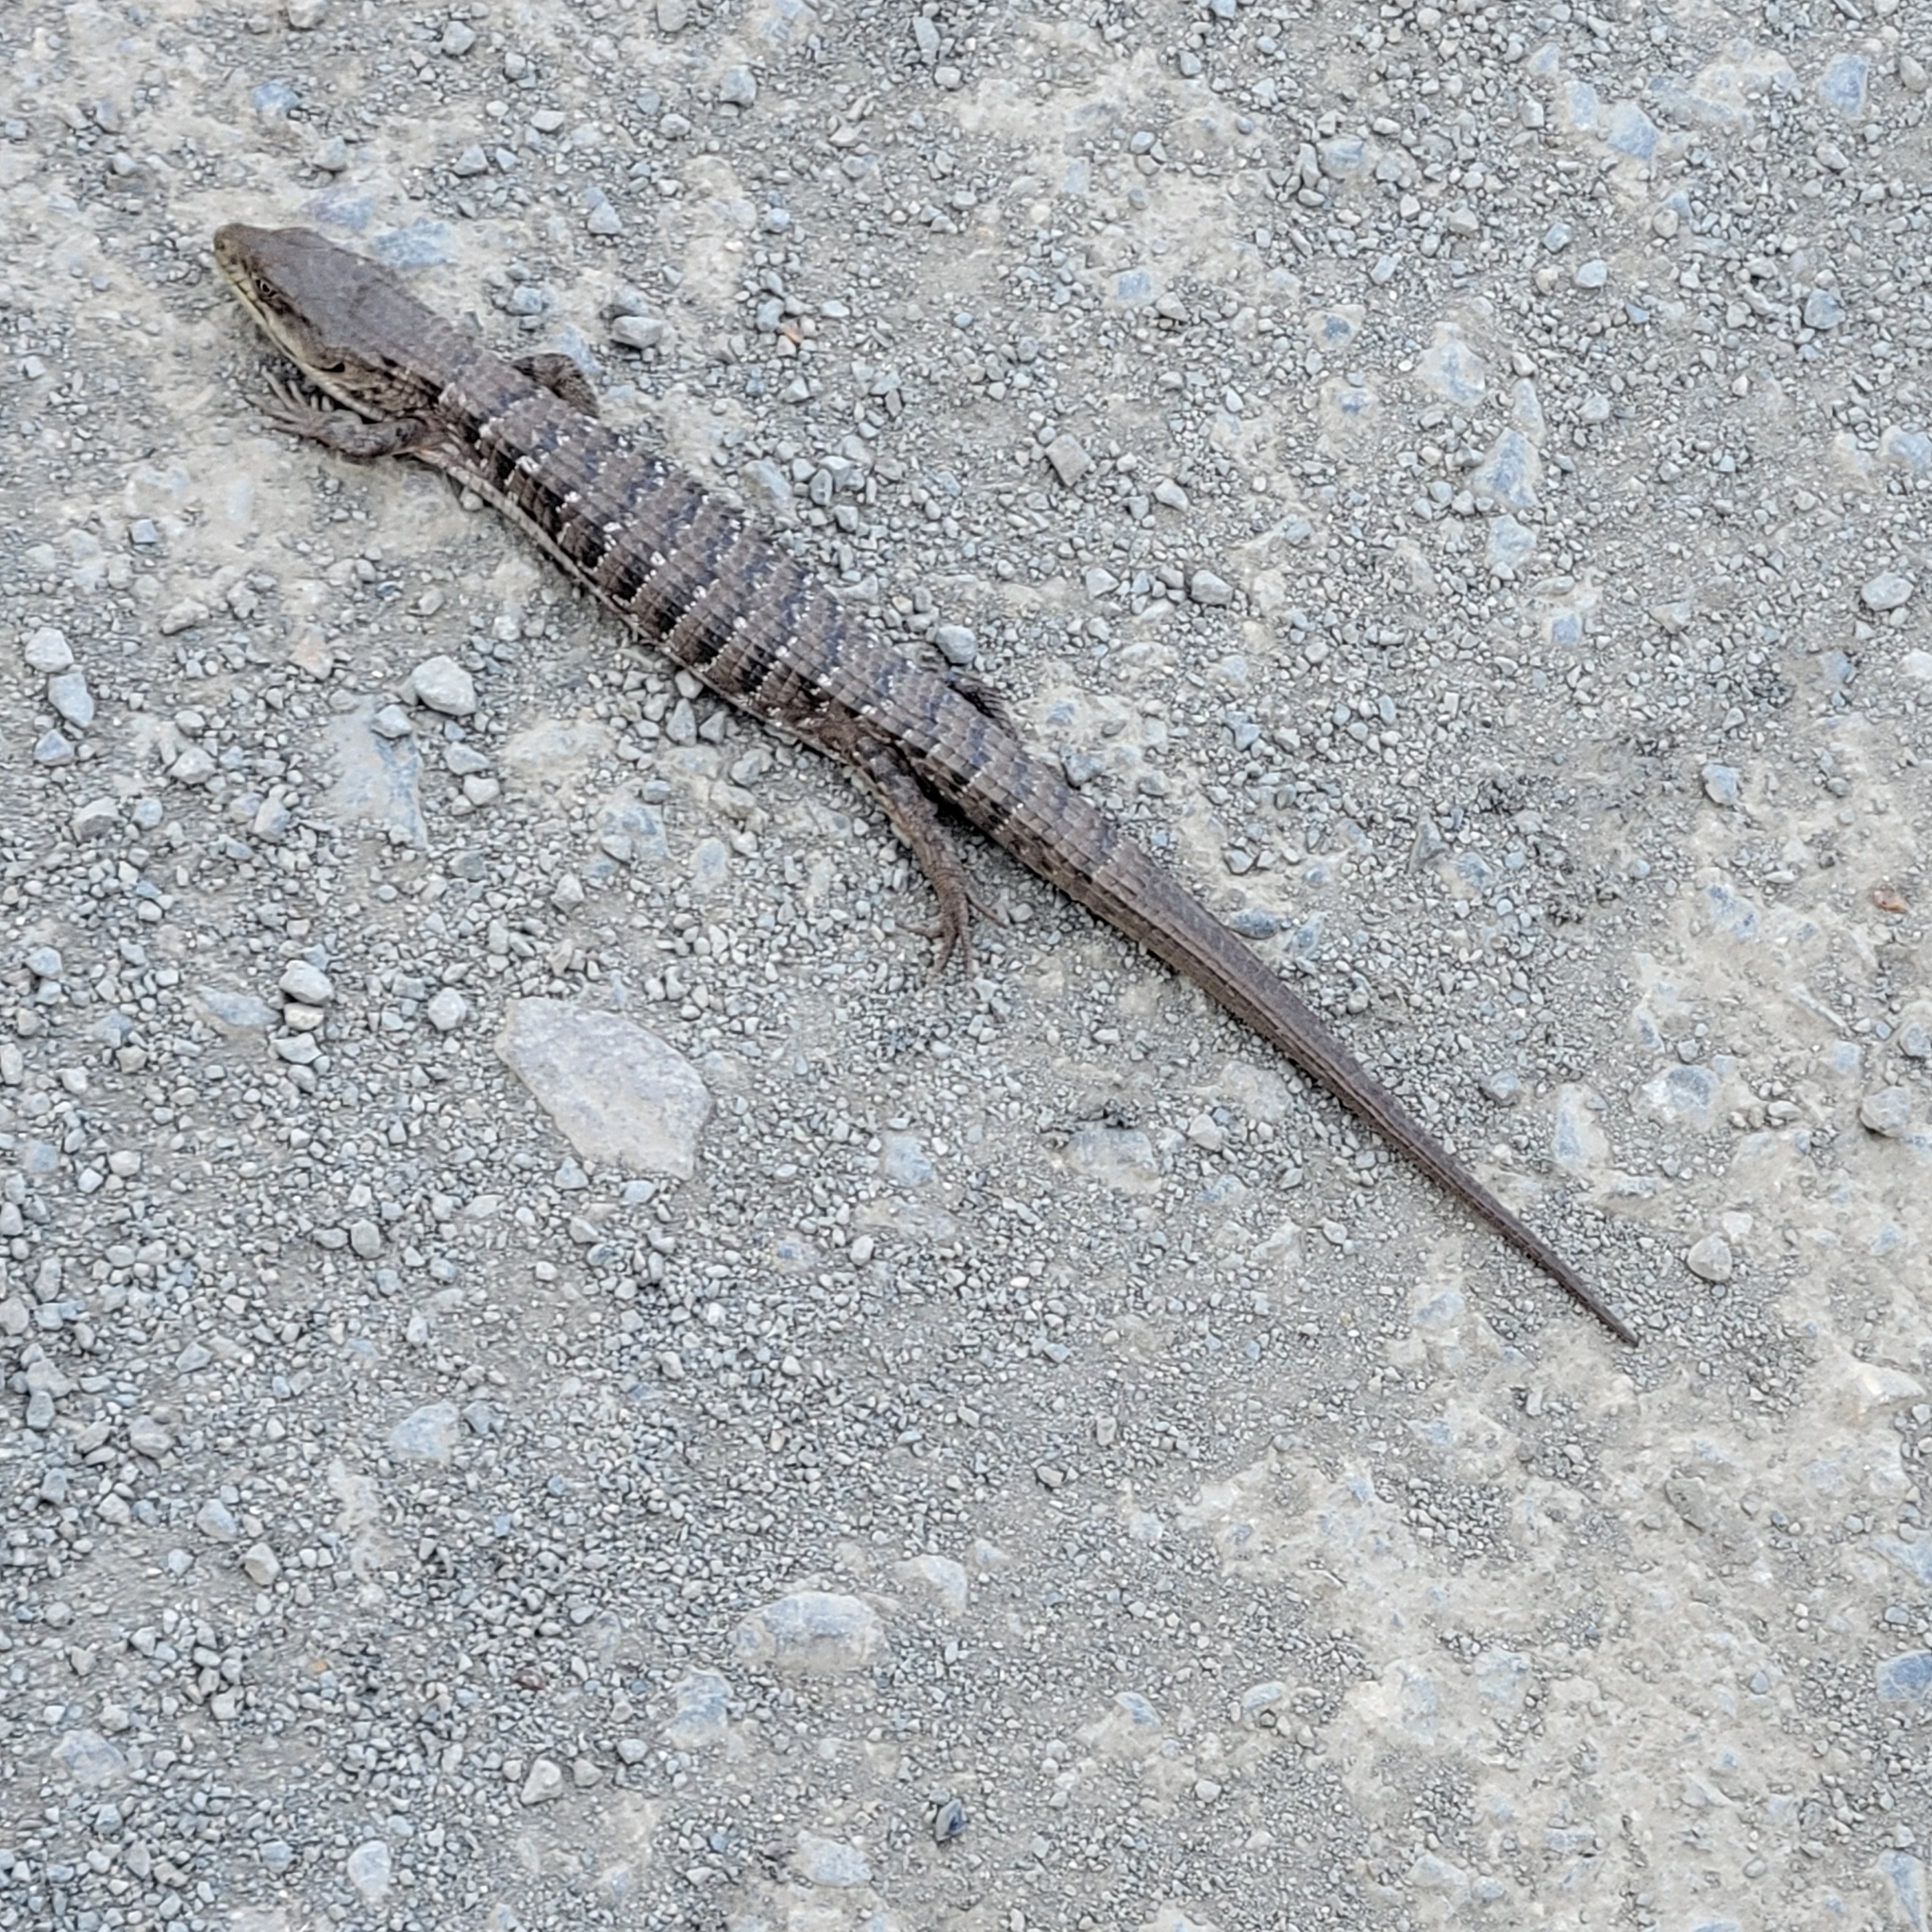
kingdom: Animalia
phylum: Chordata
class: Squamata
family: Anguidae
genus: Elgaria
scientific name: Elgaria multicarinata
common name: Southern alligator lizard
